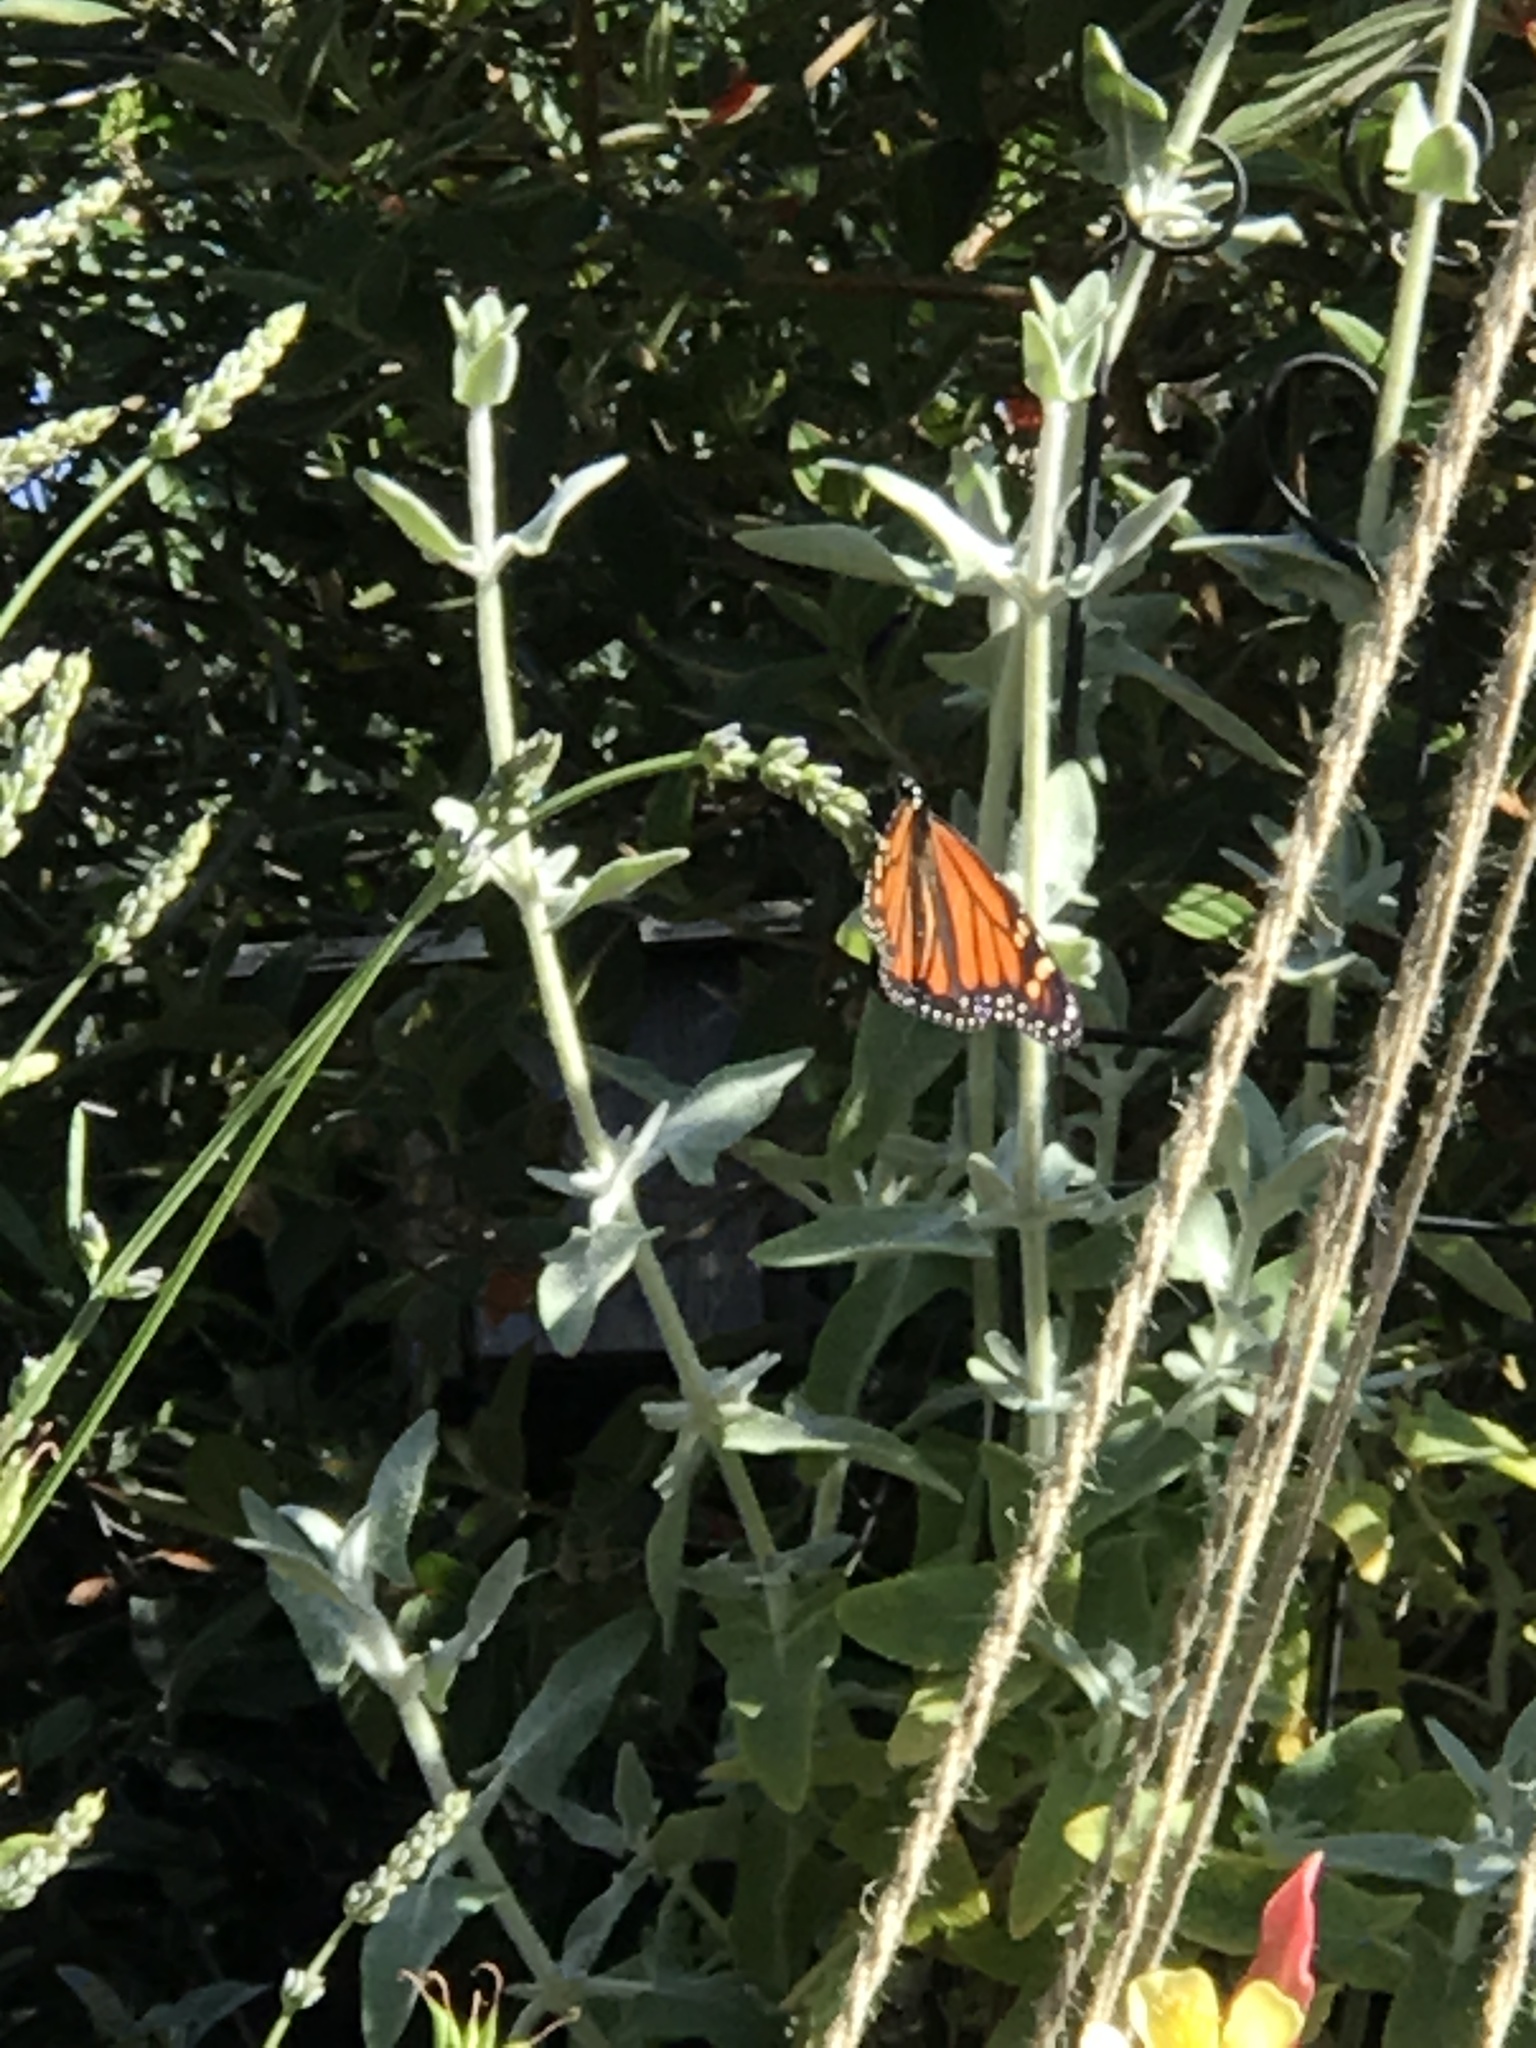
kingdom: Animalia
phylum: Arthropoda
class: Insecta
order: Lepidoptera
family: Nymphalidae
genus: Danaus
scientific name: Danaus plexippus
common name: Monarch
